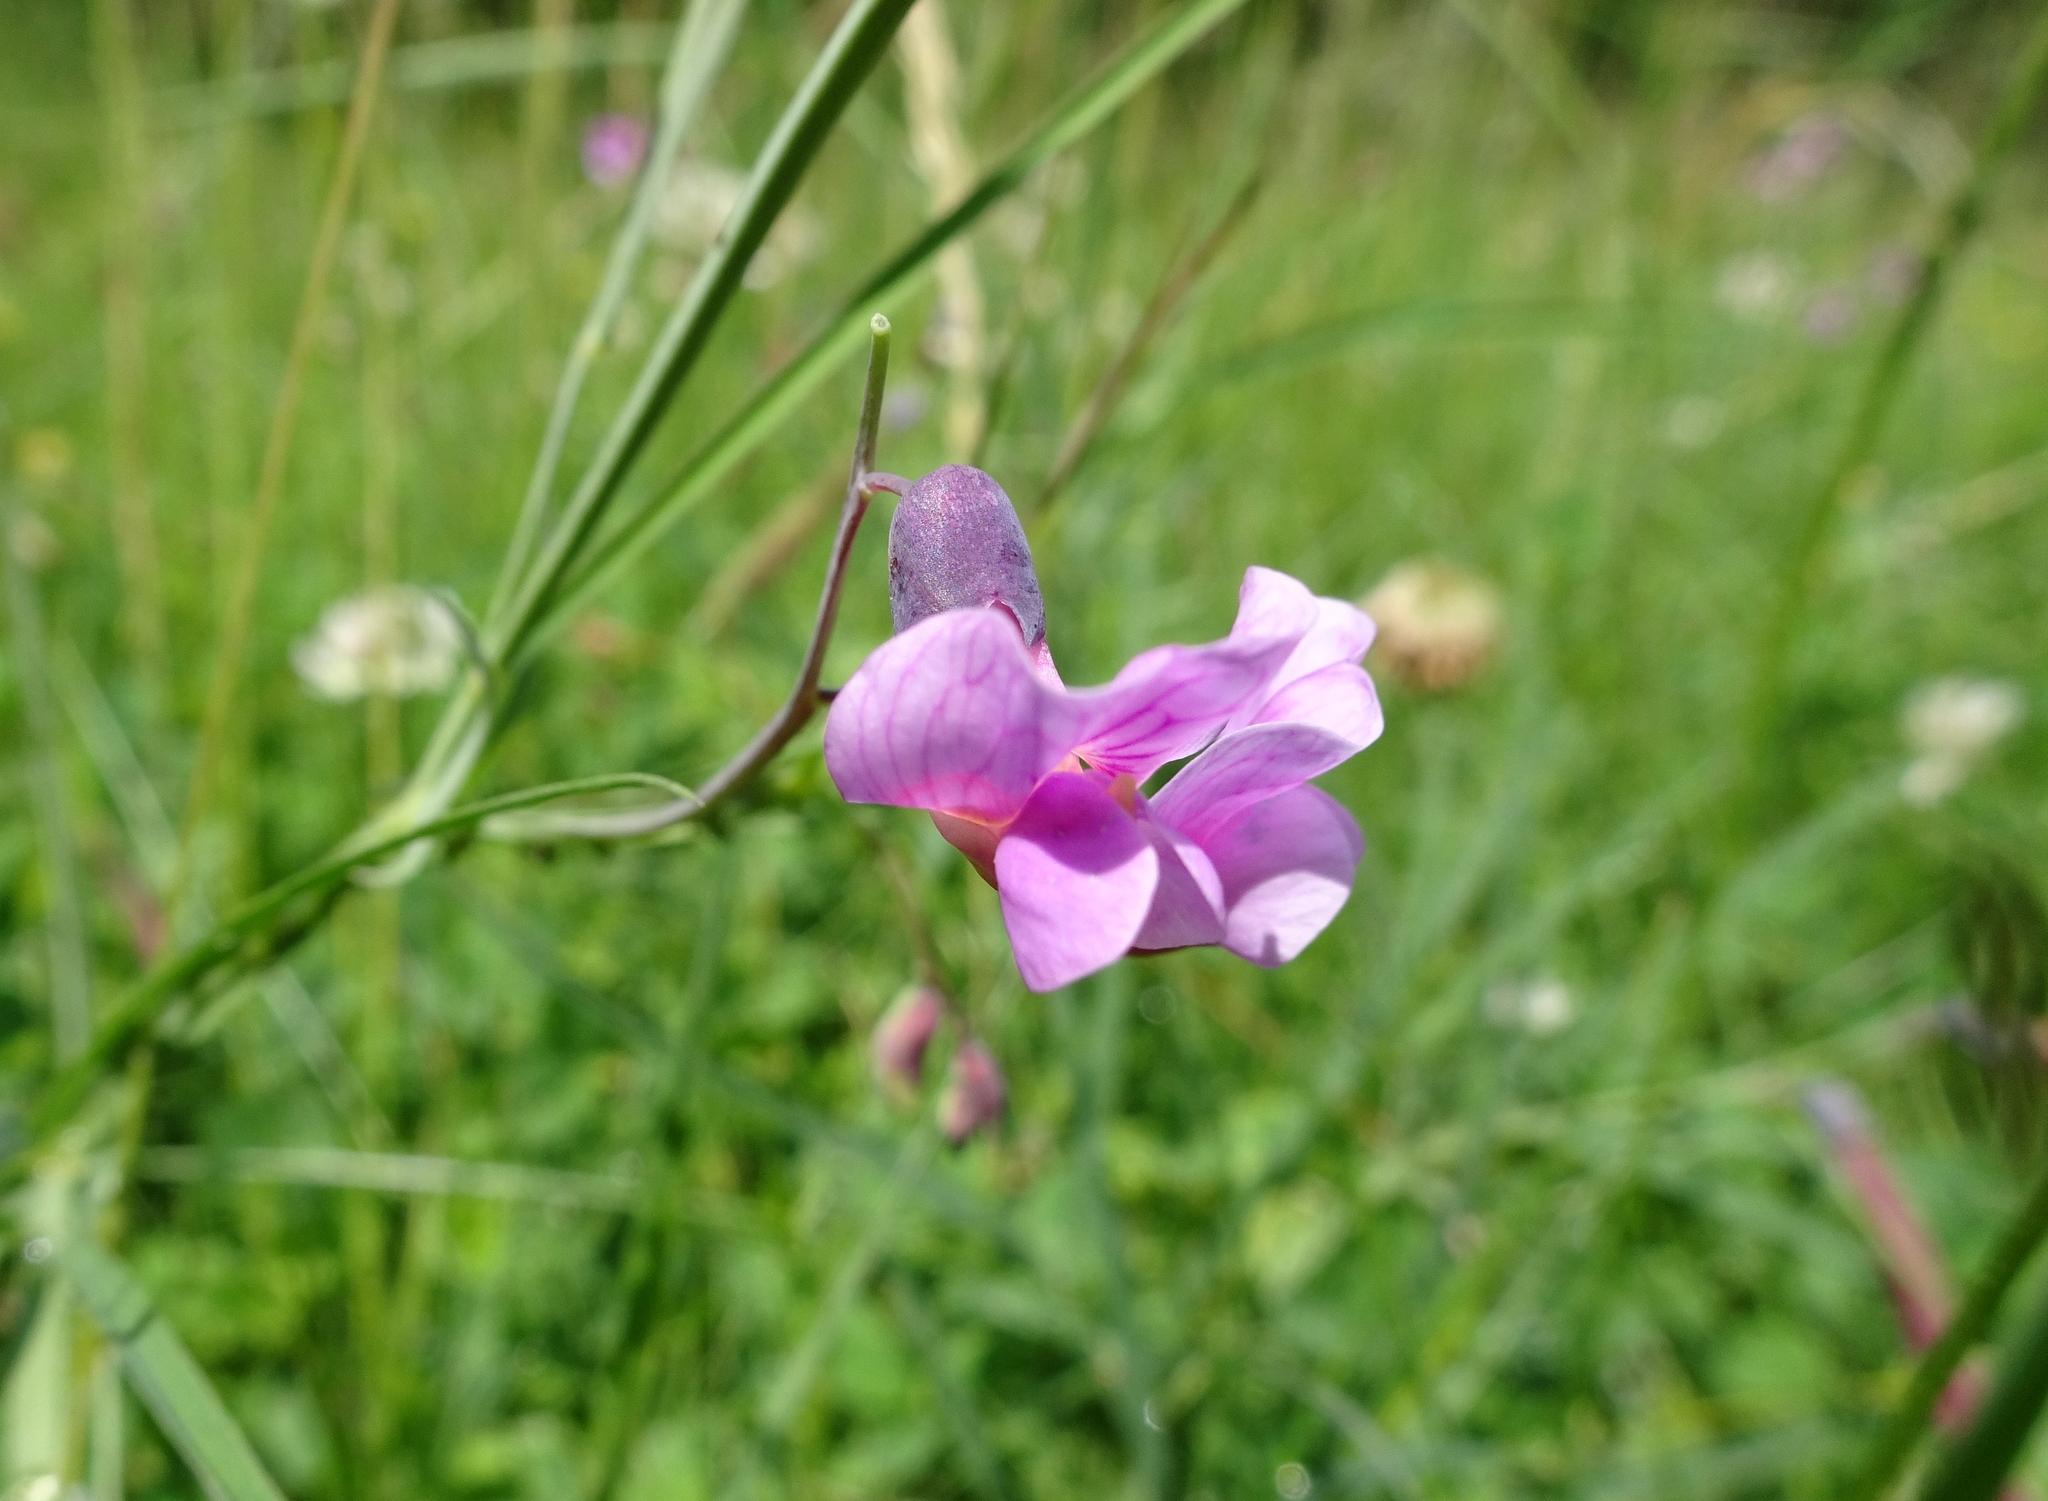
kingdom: Plantae
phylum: Tracheophyta
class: Magnoliopsida
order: Fabales
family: Fabaceae
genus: Lathyrus
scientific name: Lathyrus linifolius
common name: Bitter-vetch
